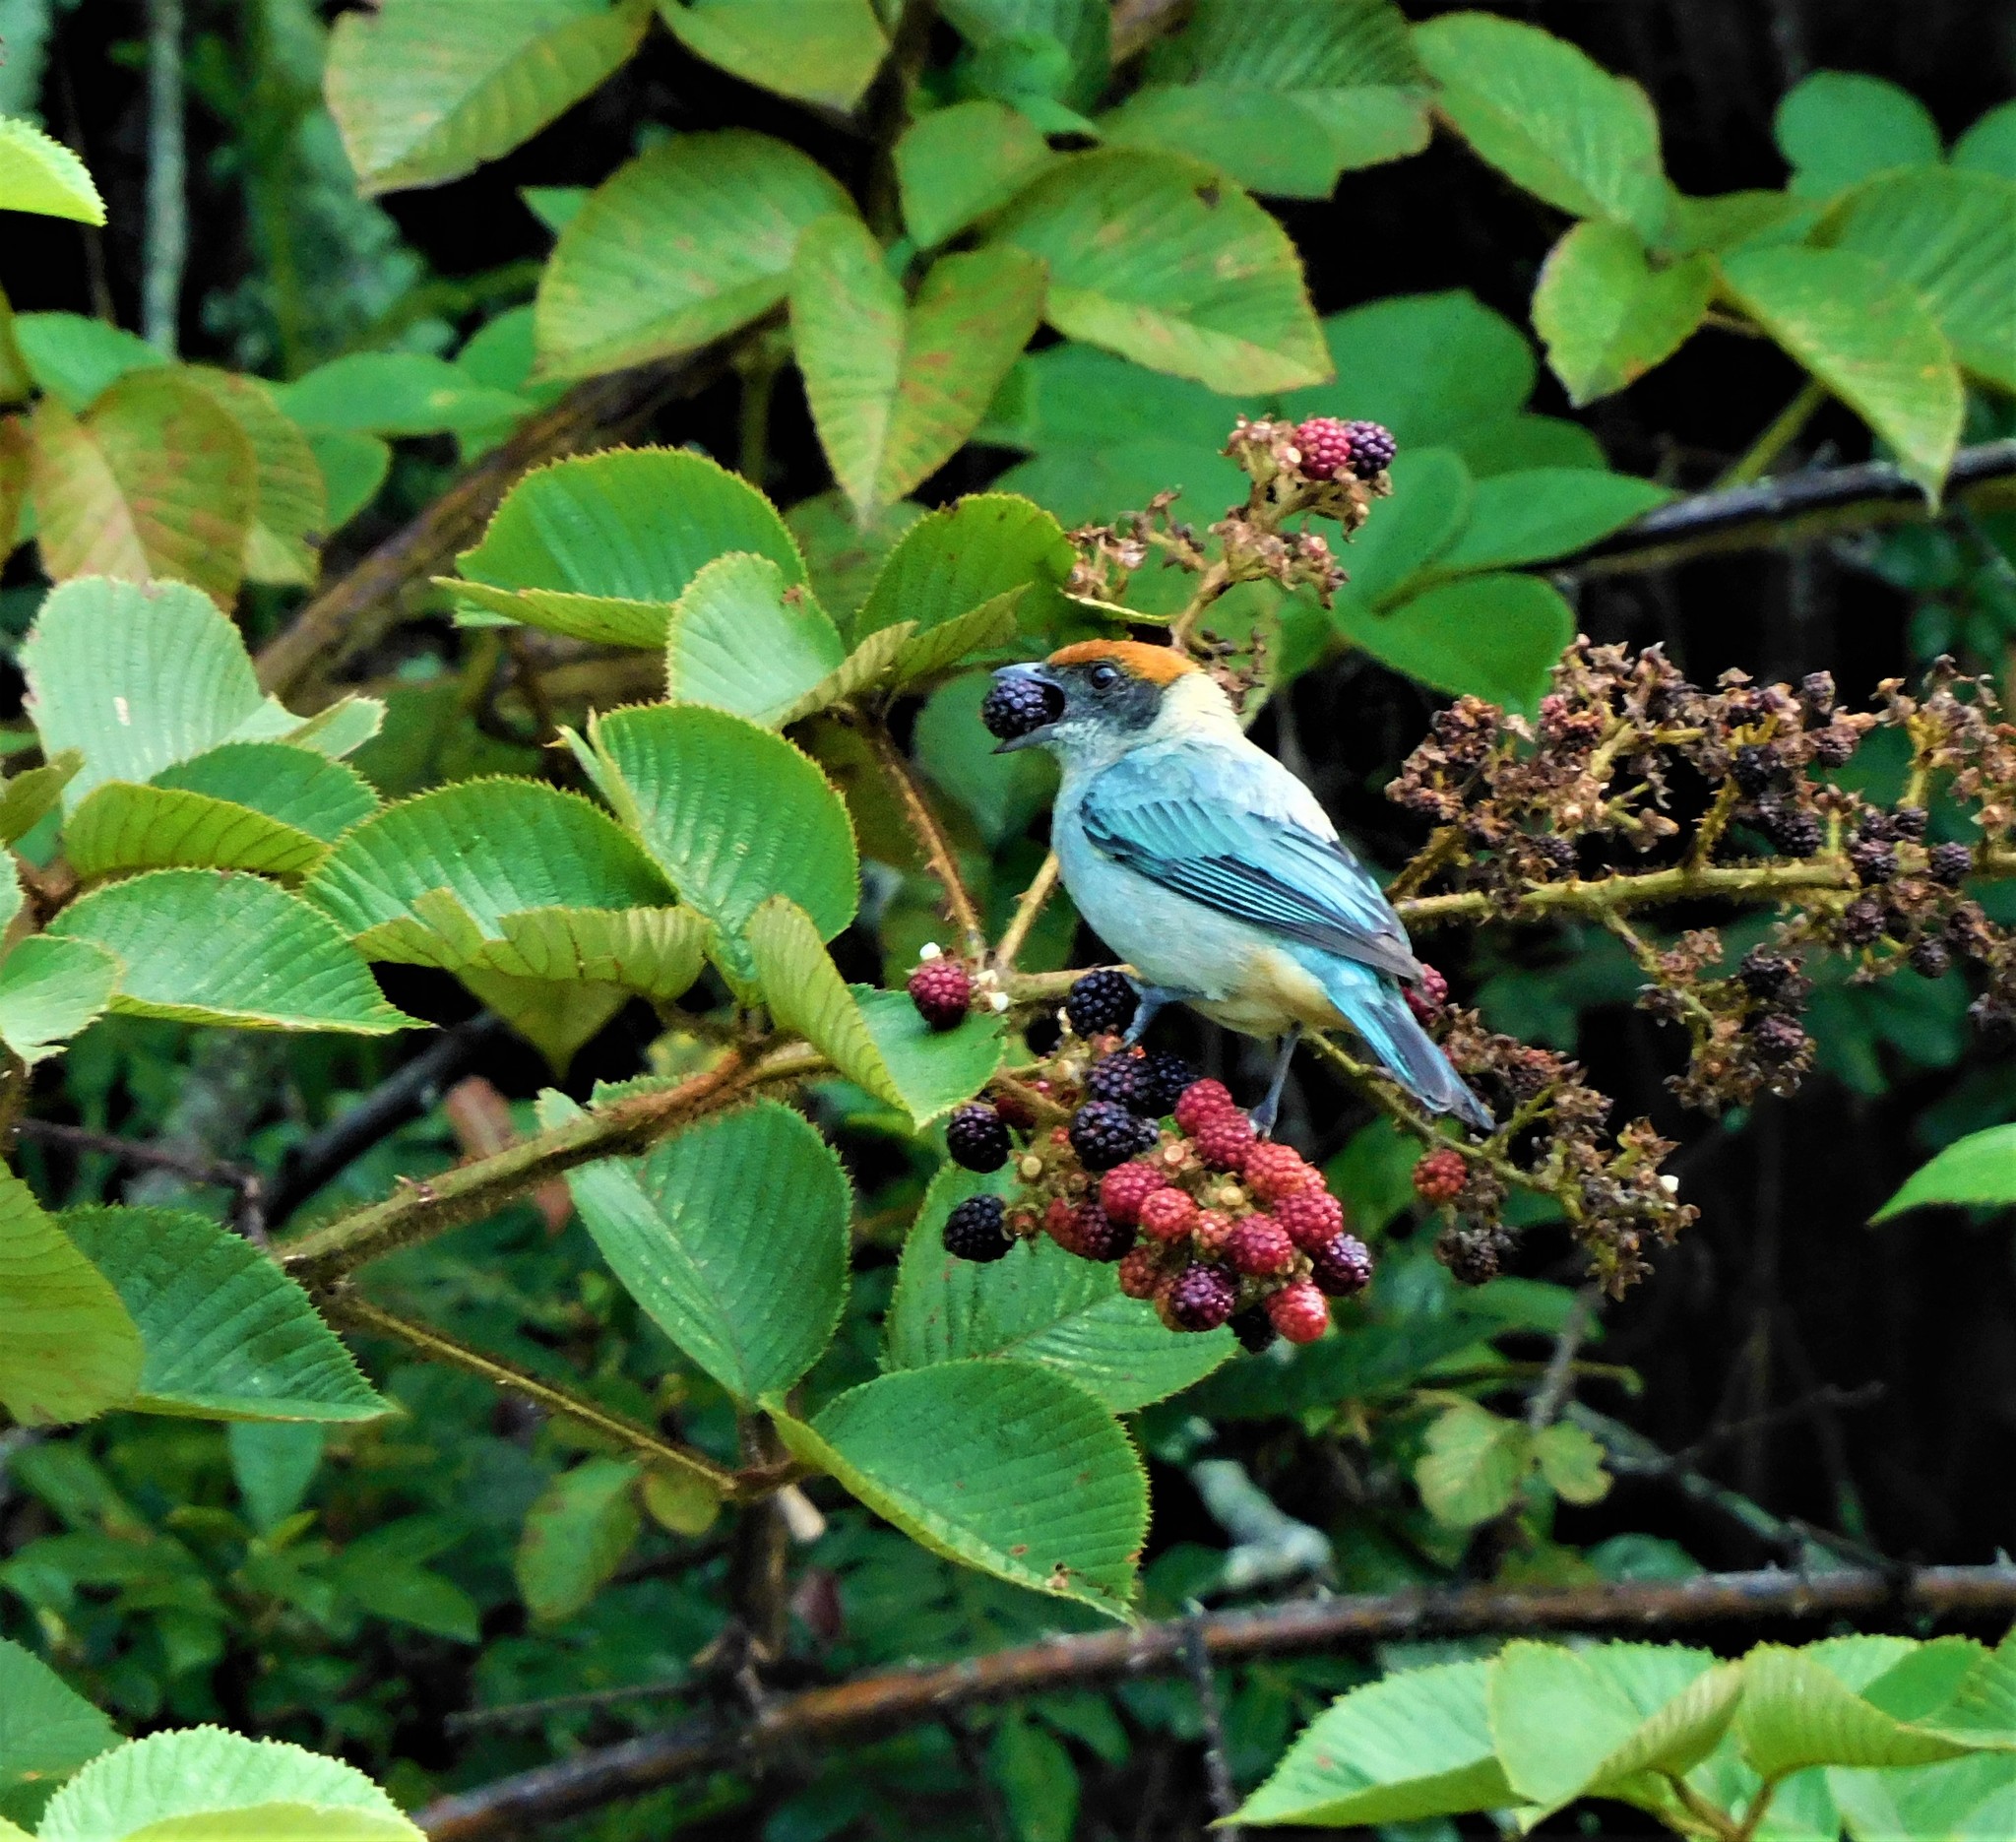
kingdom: Animalia
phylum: Chordata
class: Aves
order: Passeriformes
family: Thraupidae
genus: Stilpnia
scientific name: Stilpnia vitriolina
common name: Scrub tanager
